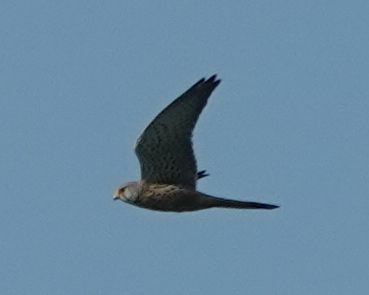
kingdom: Animalia
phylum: Chordata
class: Aves
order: Falconiformes
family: Falconidae
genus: Falco
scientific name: Falco tinnunculus
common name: Common kestrel
